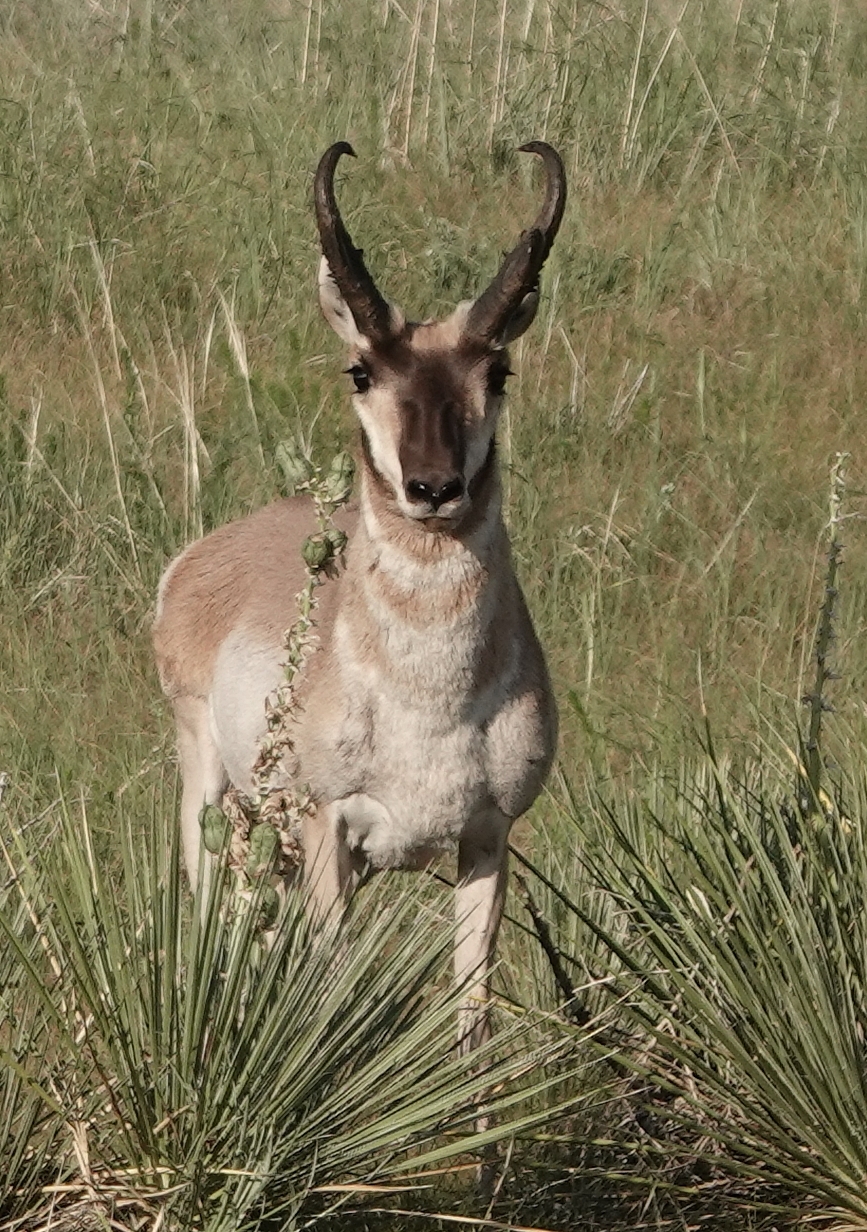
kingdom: Animalia
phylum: Chordata
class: Mammalia
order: Artiodactyla
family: Antilocapridae
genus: Antilocapra
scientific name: Antilocapra americana
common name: Pronghorn
